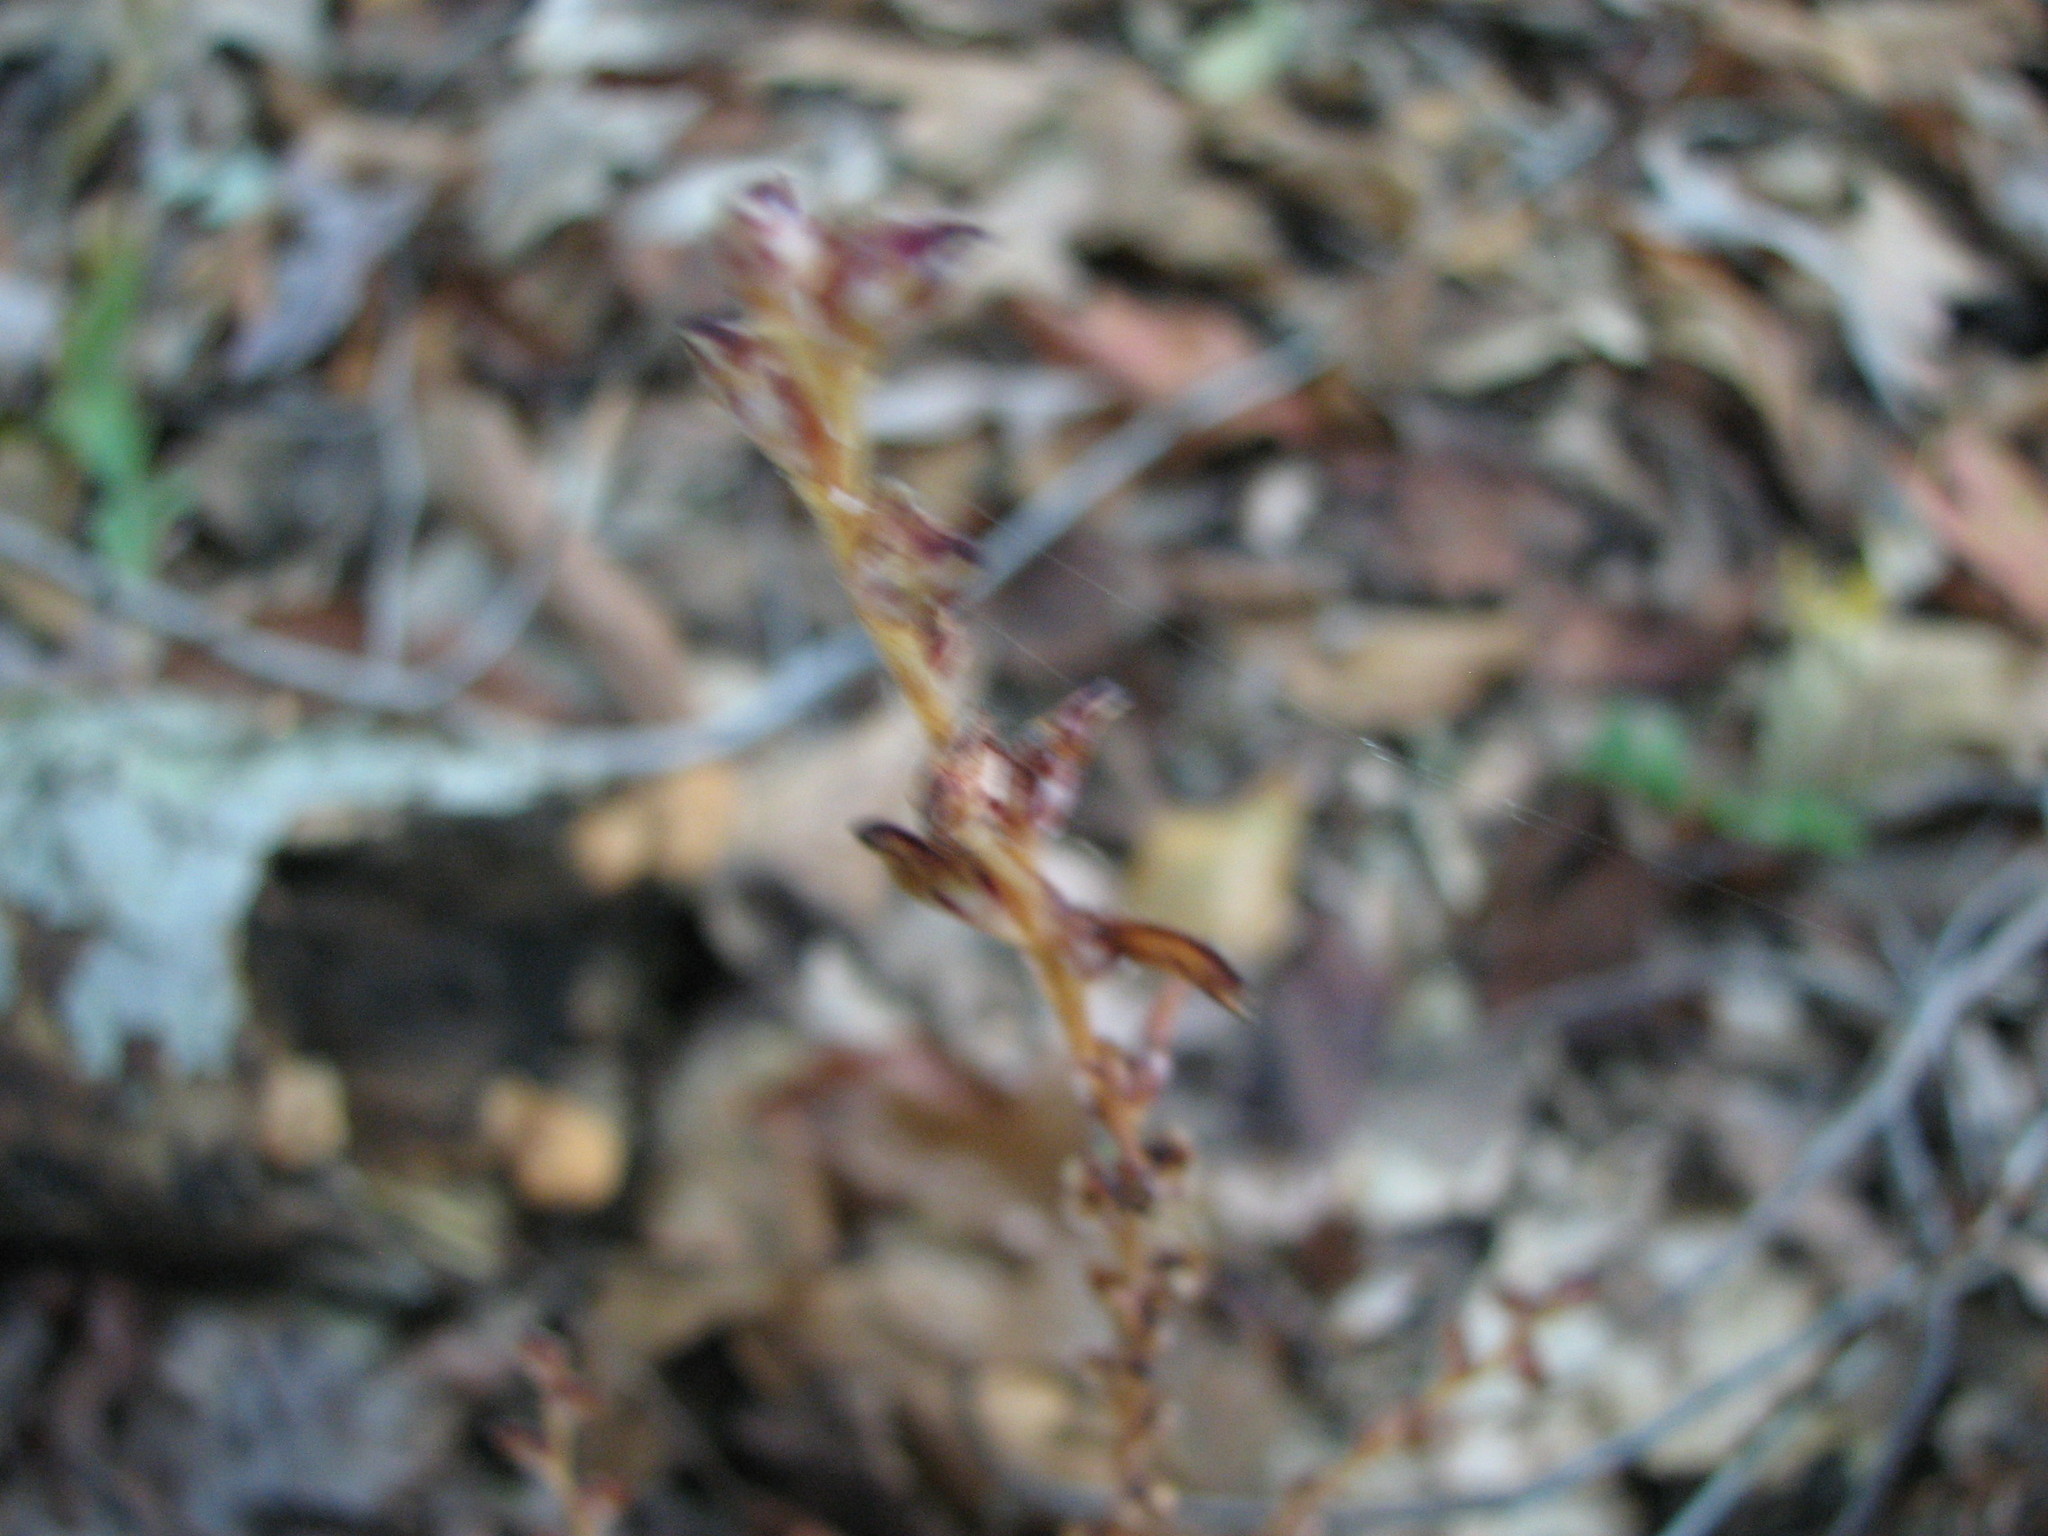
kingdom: Plantae
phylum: Tracheophyta
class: Magnoliopsida
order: Lamiales
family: Orobanchaceae
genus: Epifagus
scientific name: Epifagus virginiana
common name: Beechdrops
